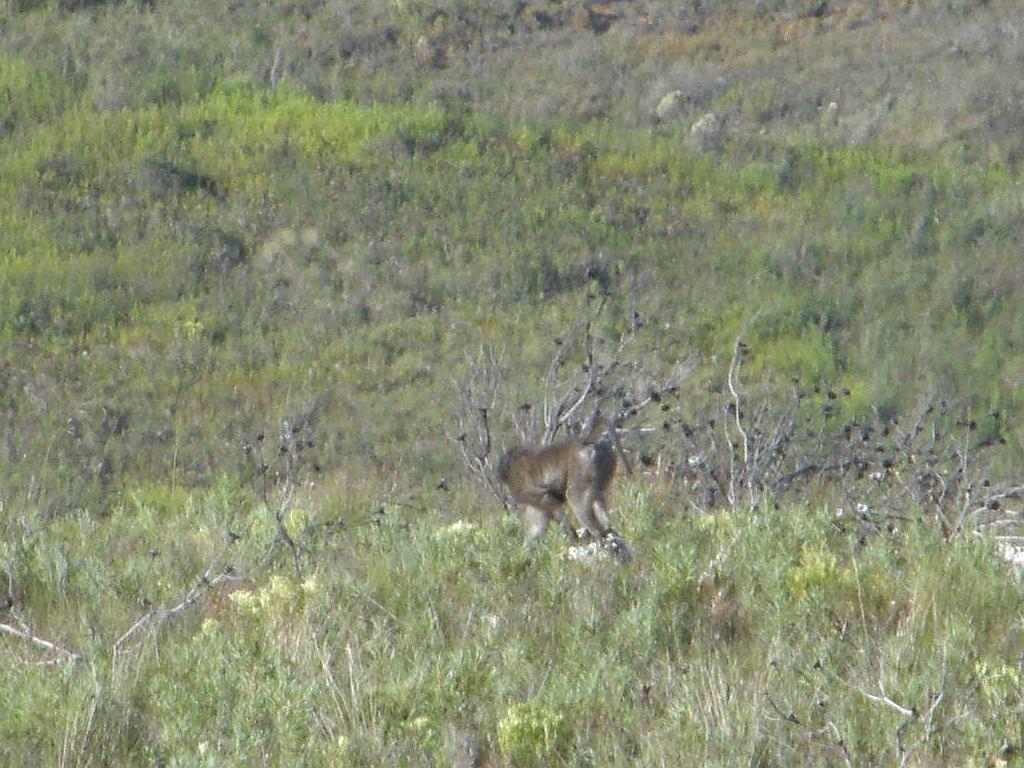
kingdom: Animalia
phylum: Chordata
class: Mammalia
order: Primates
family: Cercopithecidae
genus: Papio
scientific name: Papio ursinus
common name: Chacma baboon
